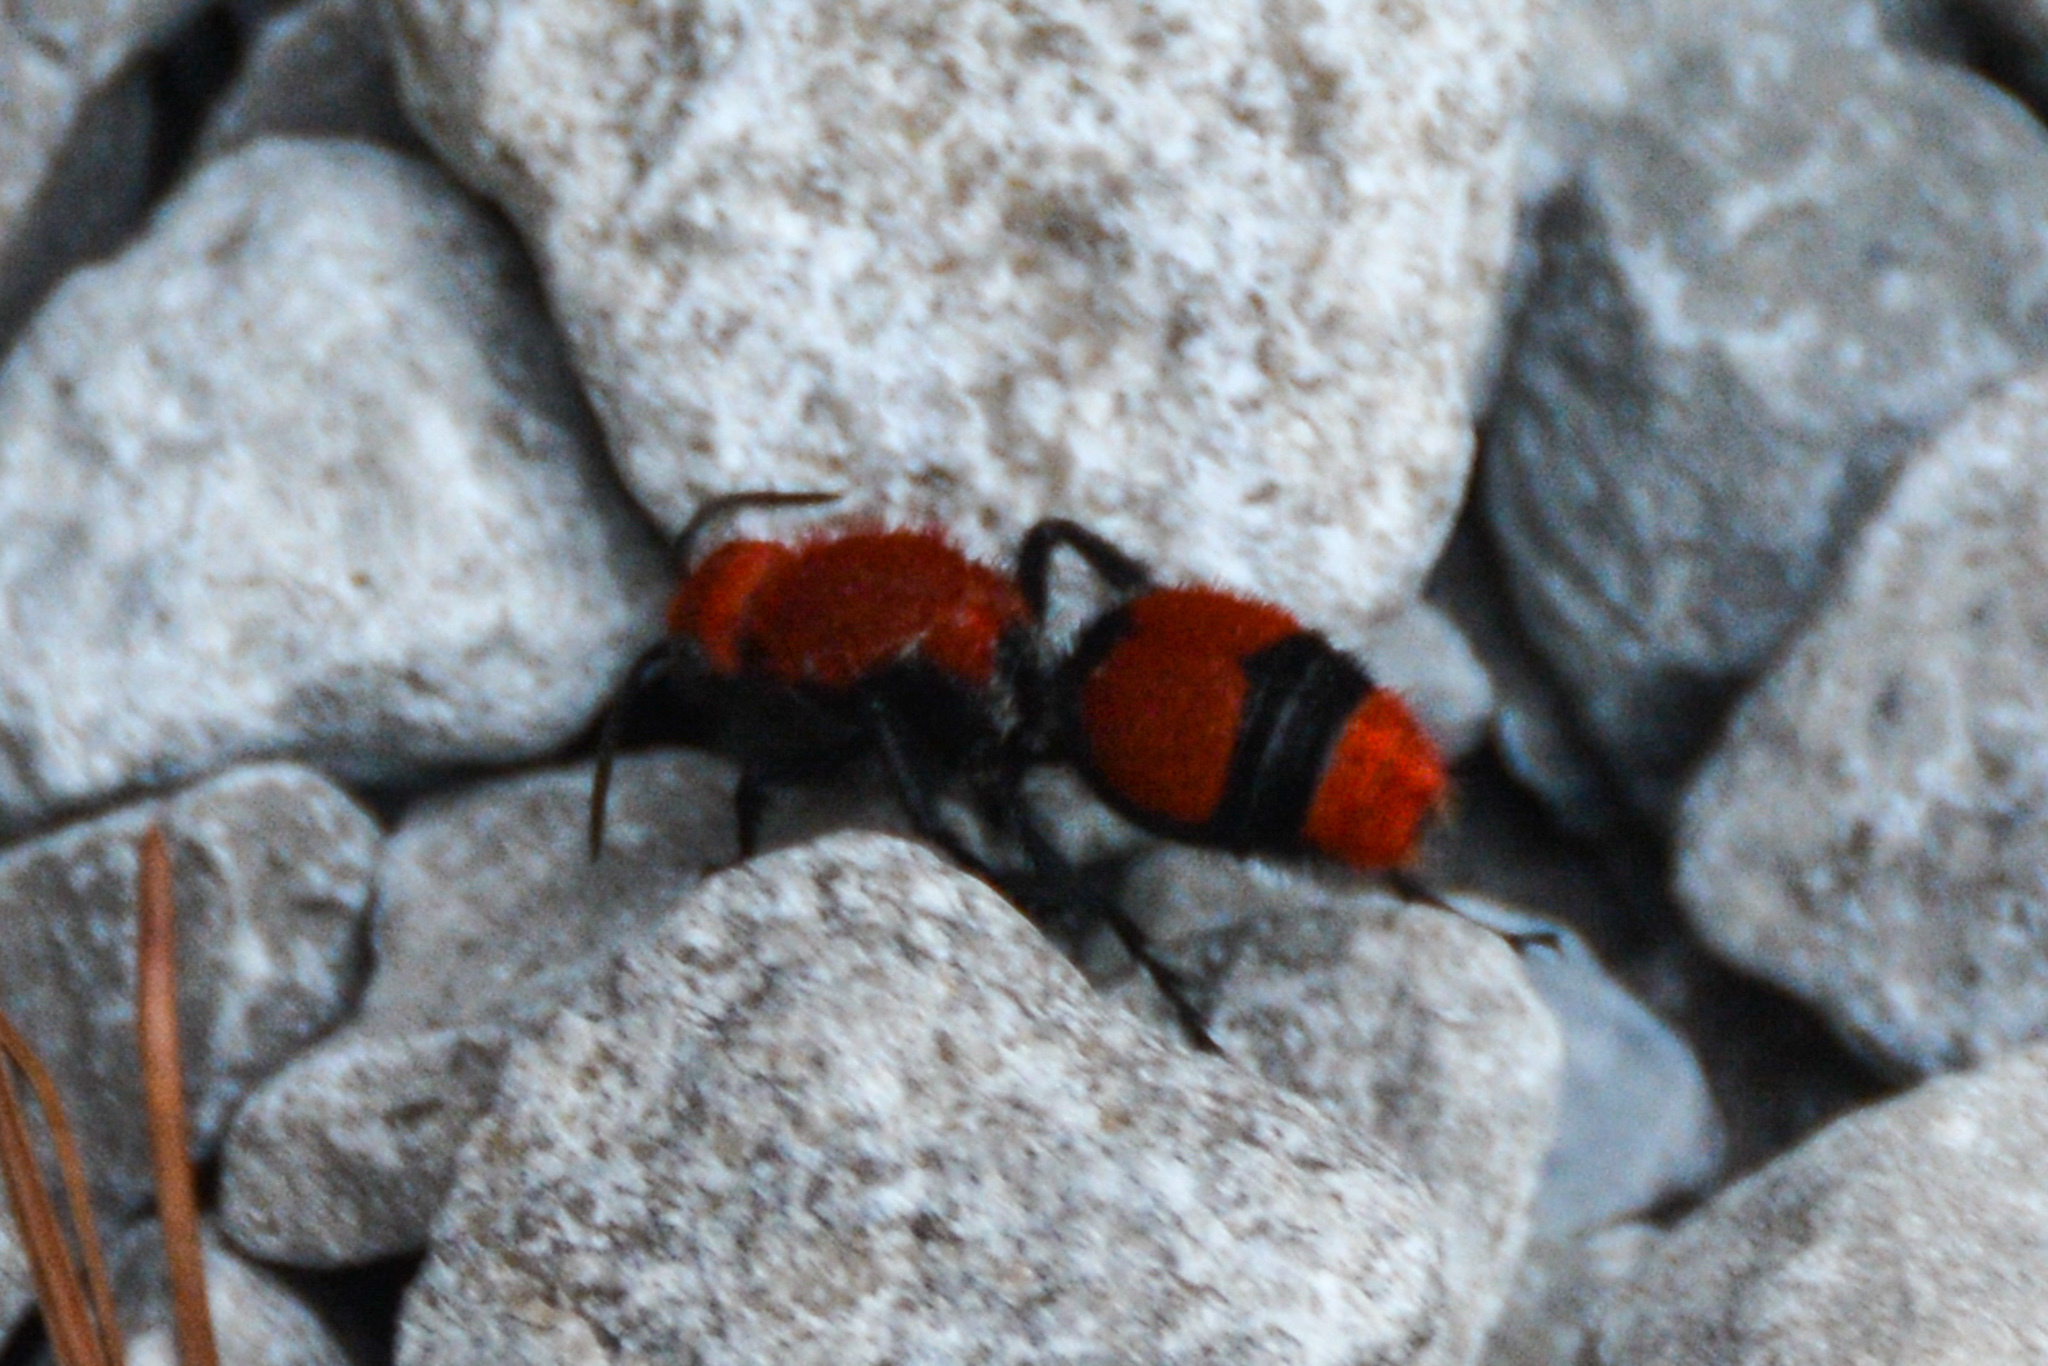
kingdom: Animalia
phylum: Arthropoda
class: Insecta
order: Hymenoptera
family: Mutillidae
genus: Dasymutilla
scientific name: Dasymutilla occidentalis
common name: Common eastern velvet ant
